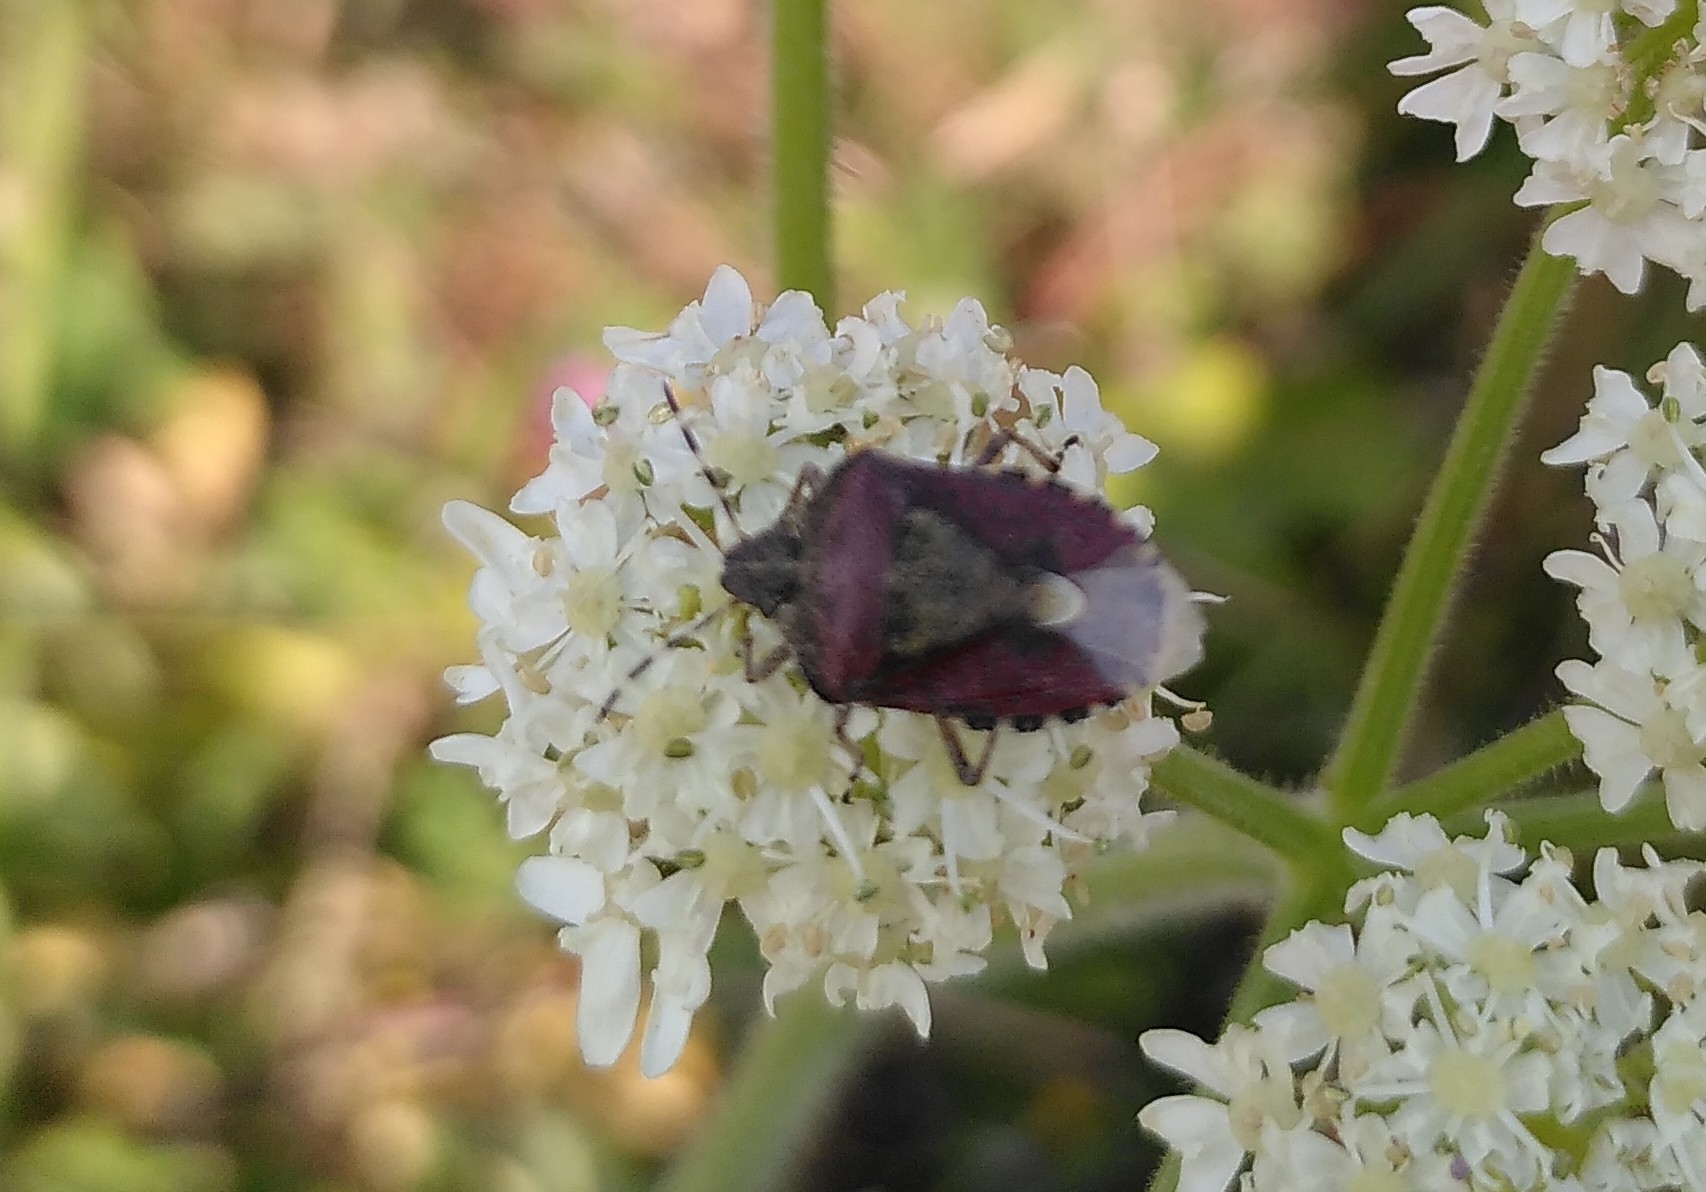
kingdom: Animalia
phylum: Arthropoda
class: Insecta
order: Hemiptera
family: Pentatomidae
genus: Dolycoris
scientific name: Dolycoris baccarum
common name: Sloe bug
